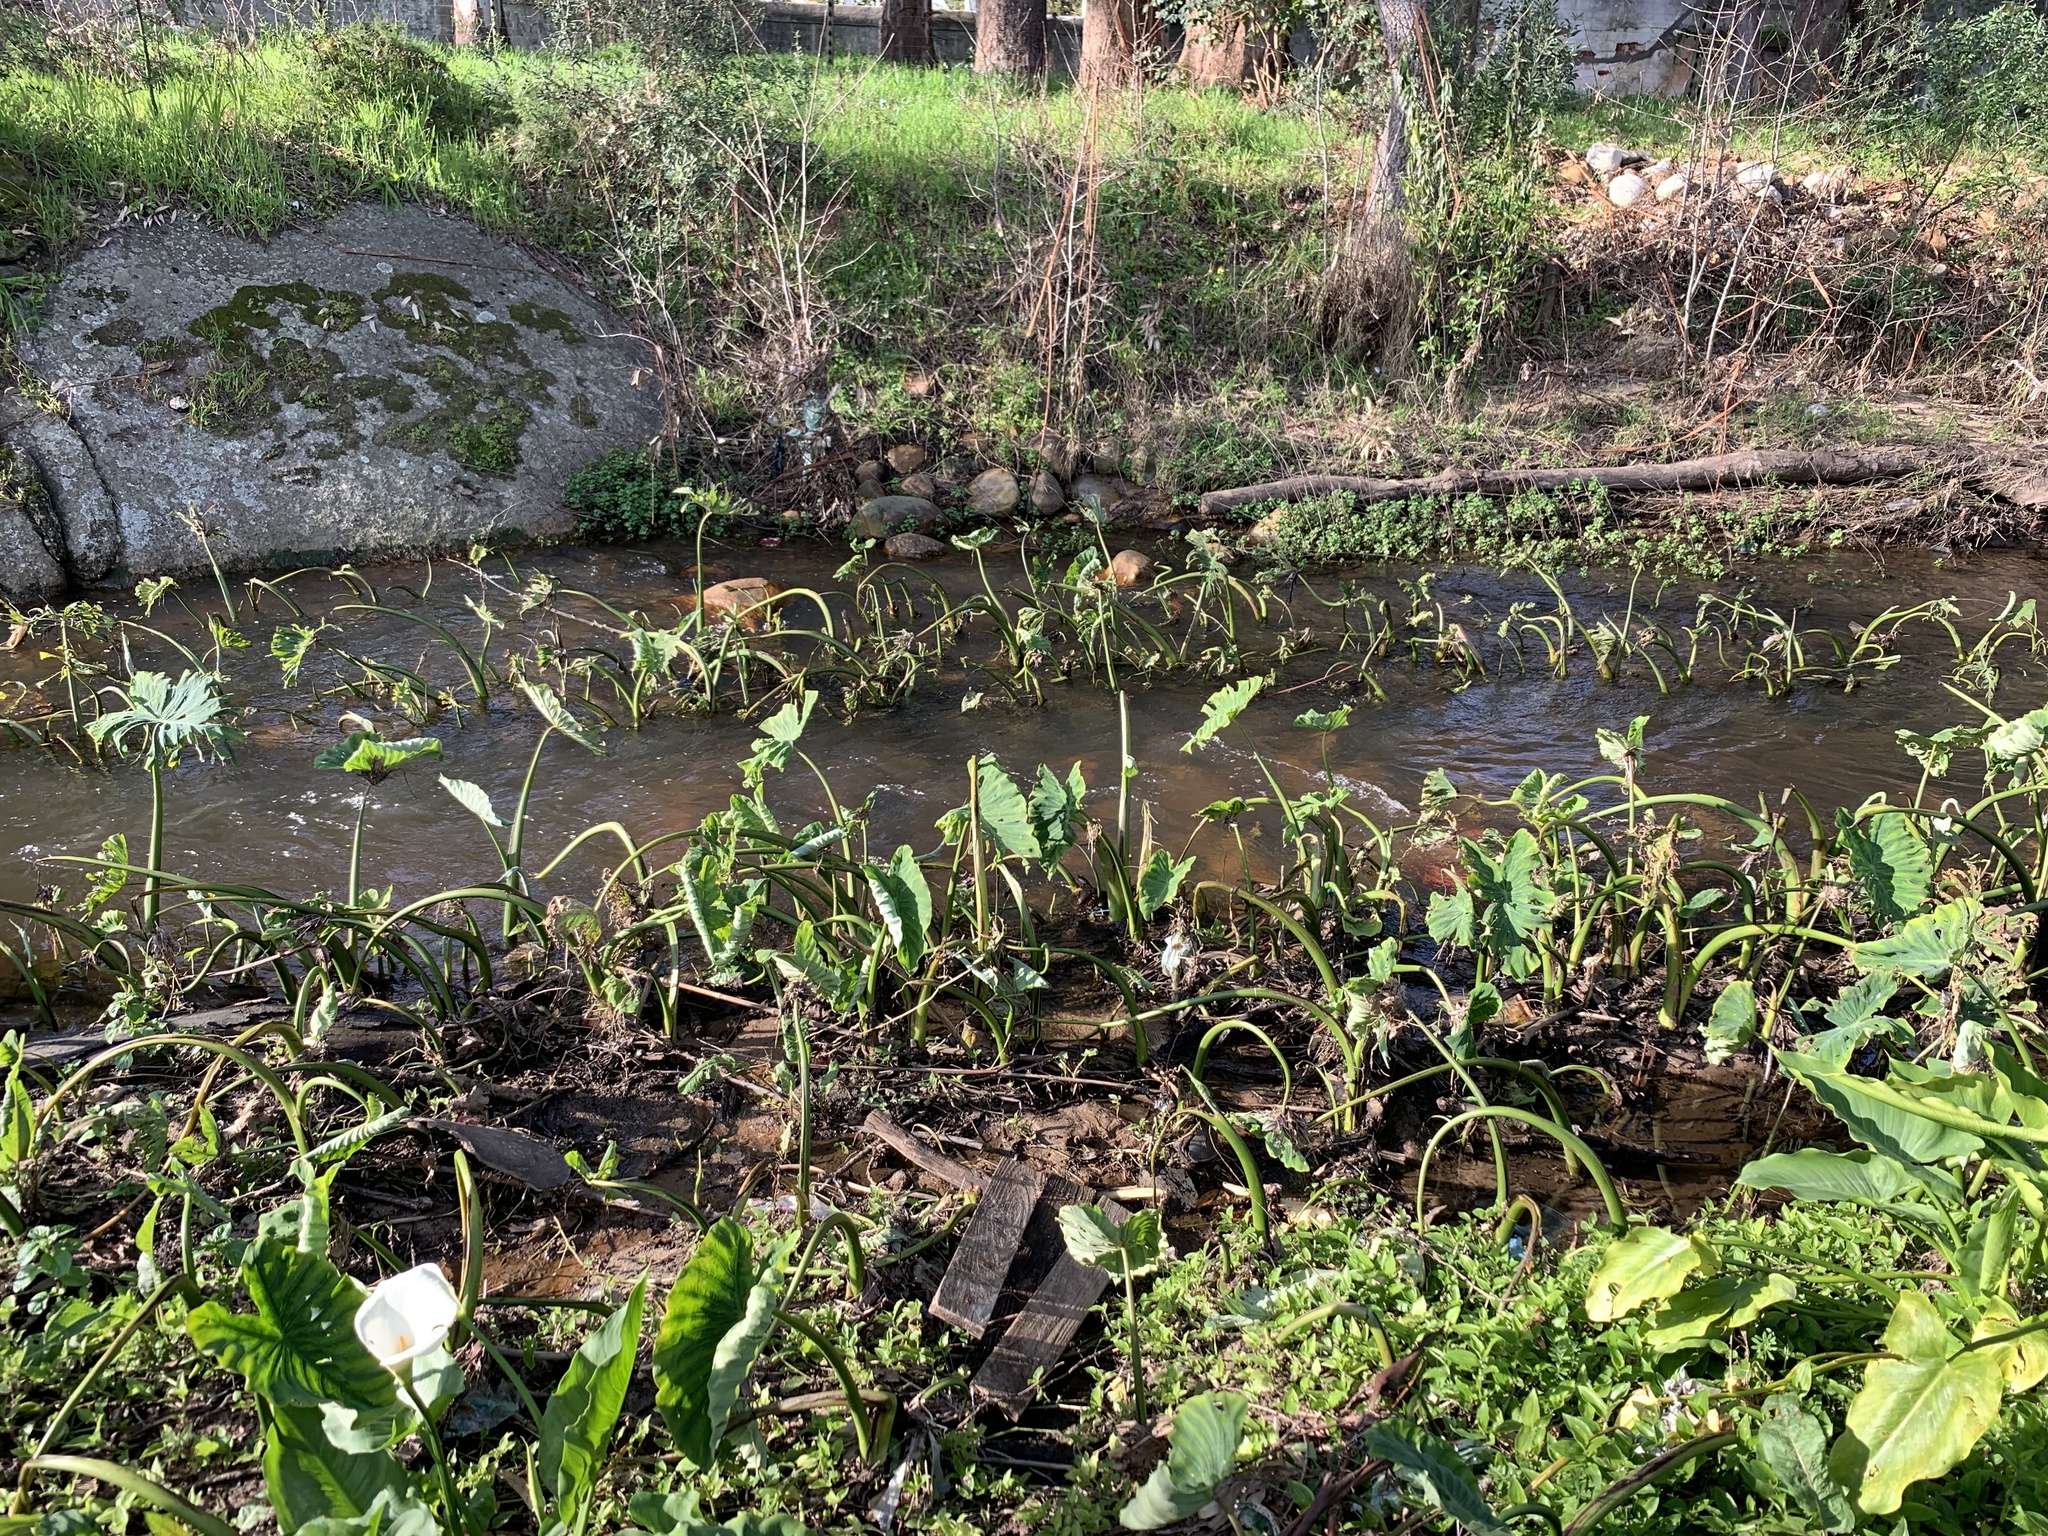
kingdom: Plantae
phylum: Tracheophyta
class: Liliopsida
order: Alismatales
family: Araceae
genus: Colocasia
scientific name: Colocasia esculenta
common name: Taro
